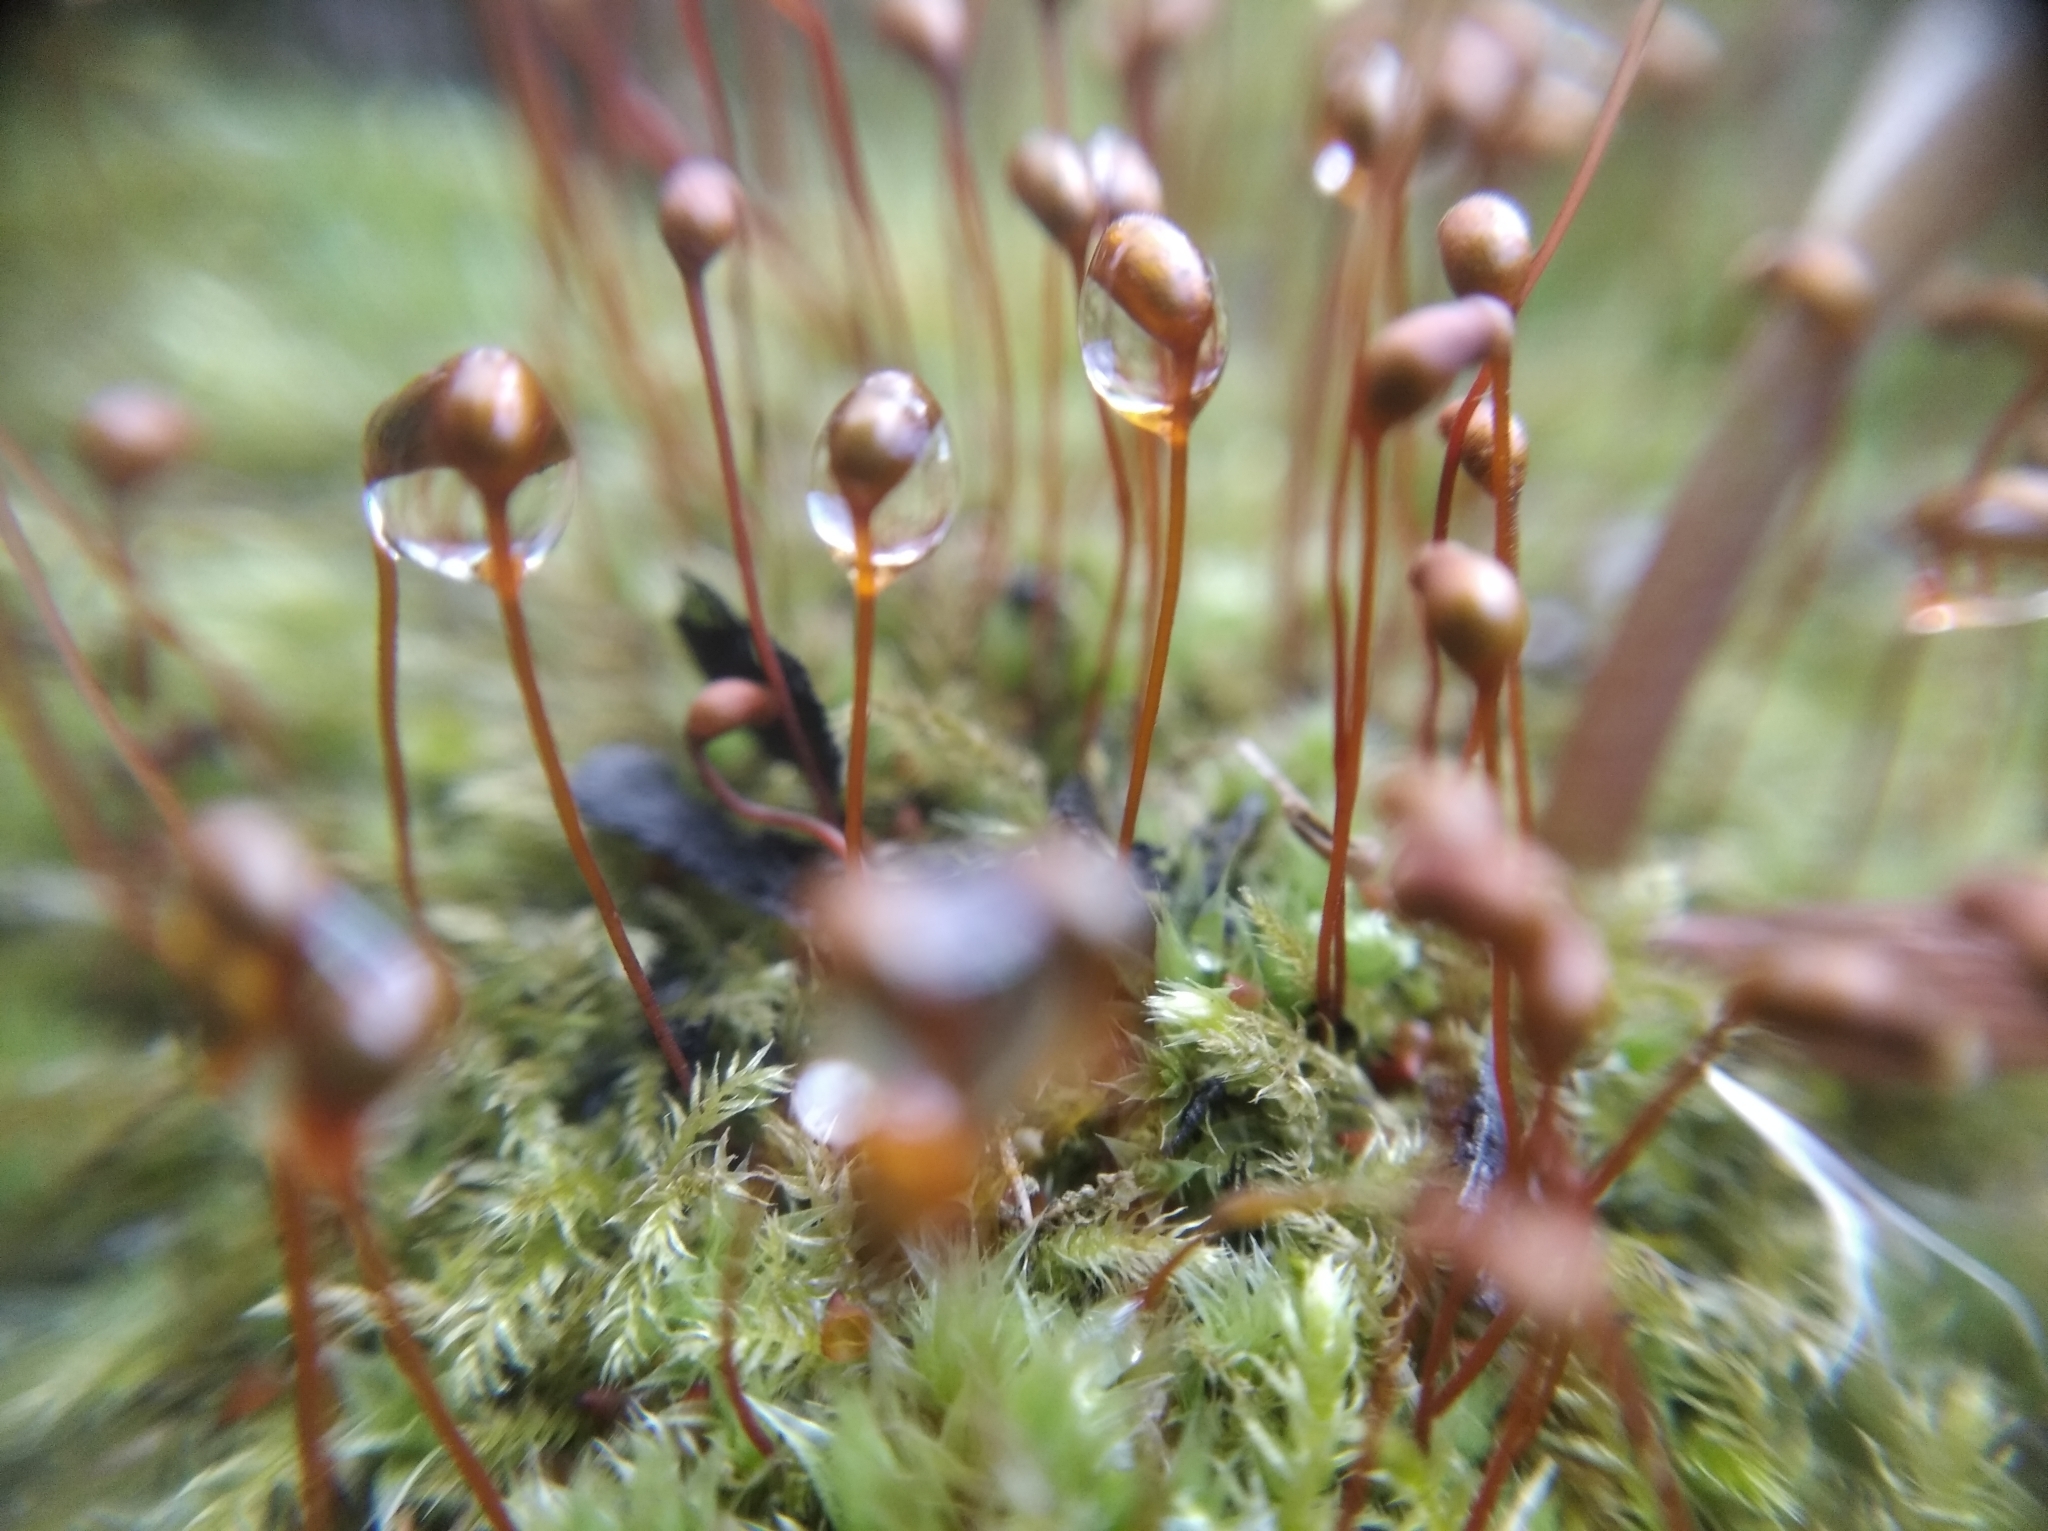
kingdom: Plantae
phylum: Bryophyta
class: Bryopsida
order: Hypnales
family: Brachytheciaceae
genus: Brachytheciastrum
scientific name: Brachytheciastrum velutinum
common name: Velvet feather-moss
